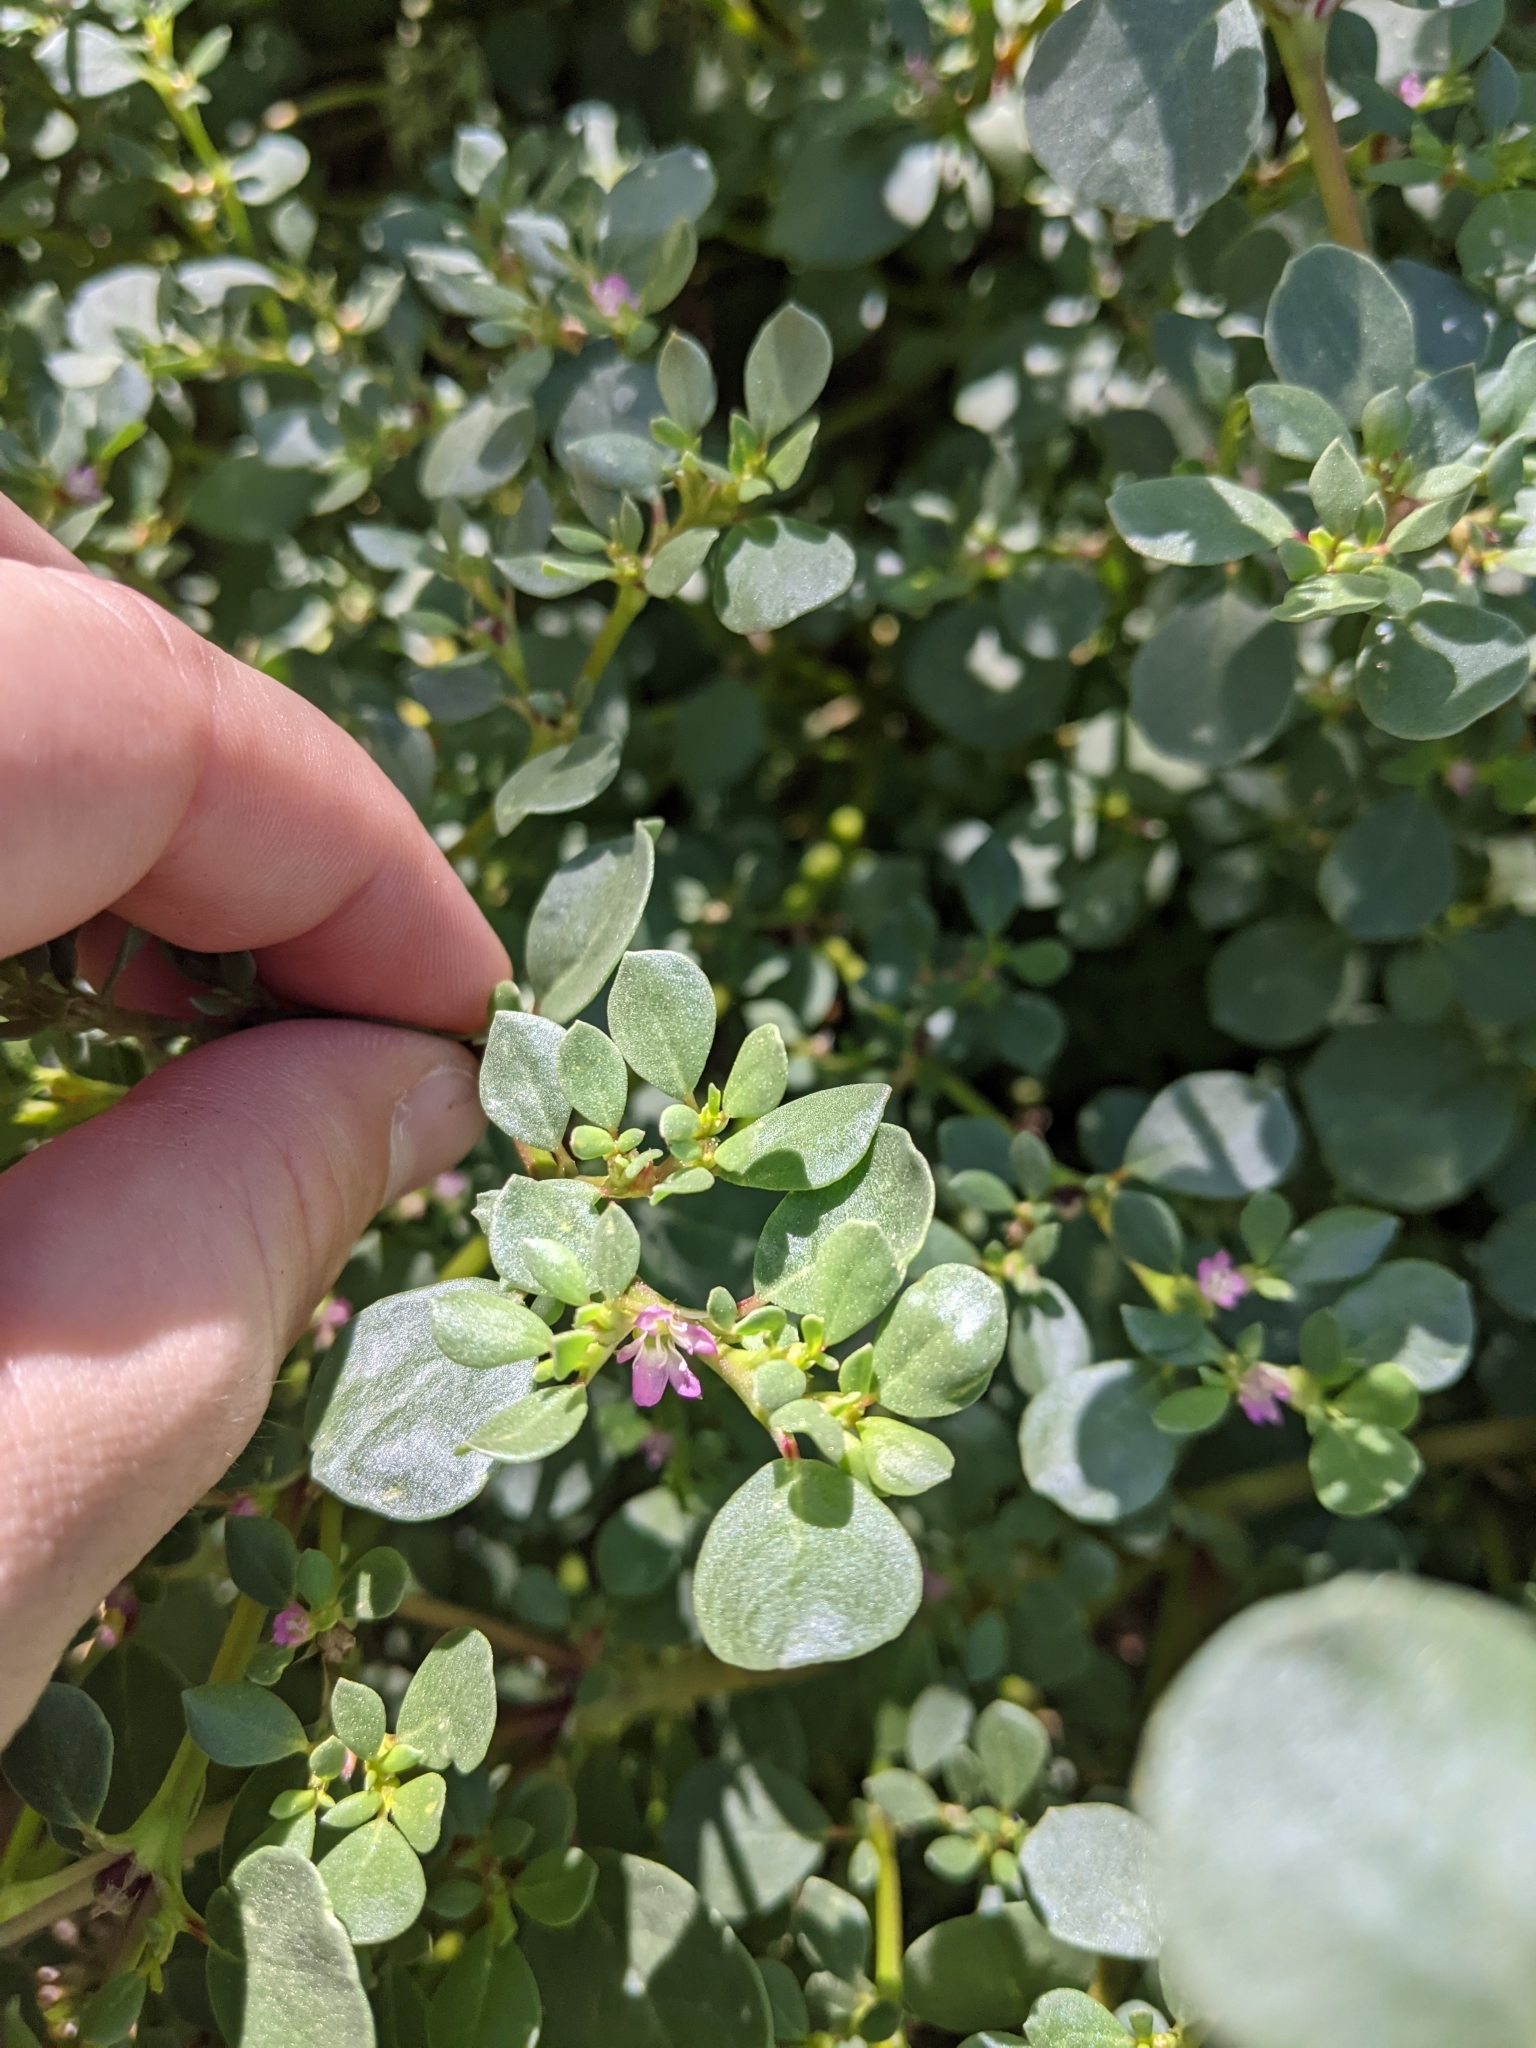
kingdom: Plantae
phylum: Tracheophyta
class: Magnoliopsida
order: Caryophyllales
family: Aizoaceae
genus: Trianthema
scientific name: Trianthema portulacastrum
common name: Desert horsepurslane
